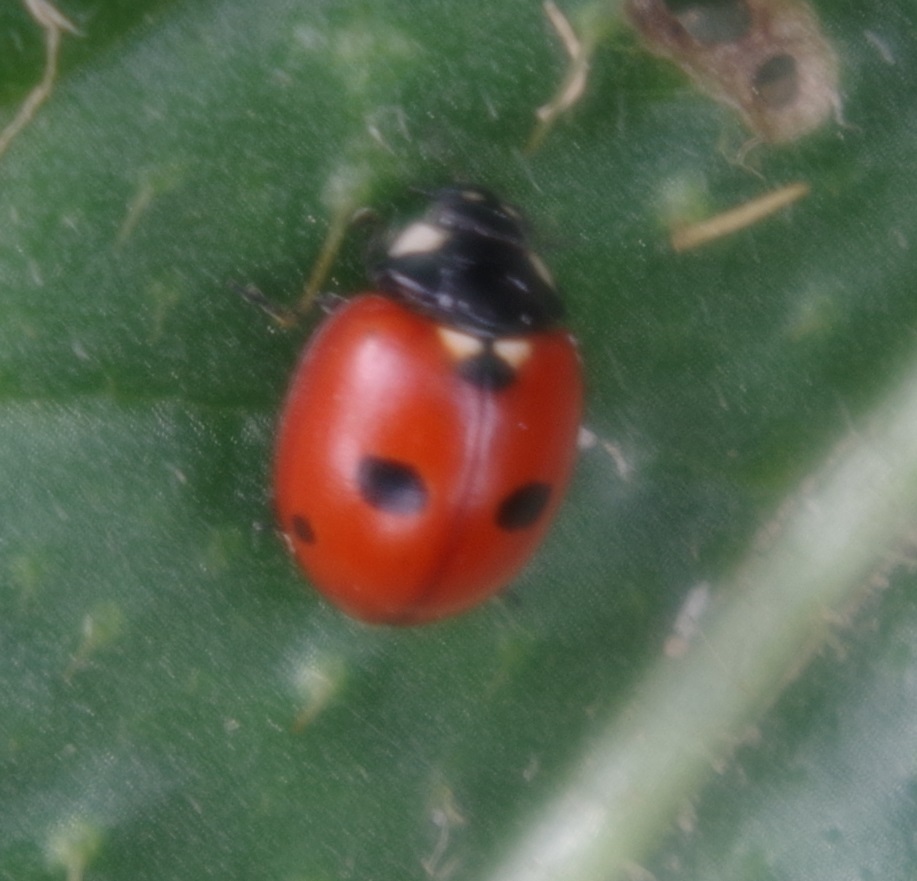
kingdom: Animalia
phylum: Arthropoda
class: Insecta
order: Coleoptera
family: Coccinellidae
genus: Coccinella
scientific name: Coccinella quinquepunctata
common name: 5-spot ladybird
